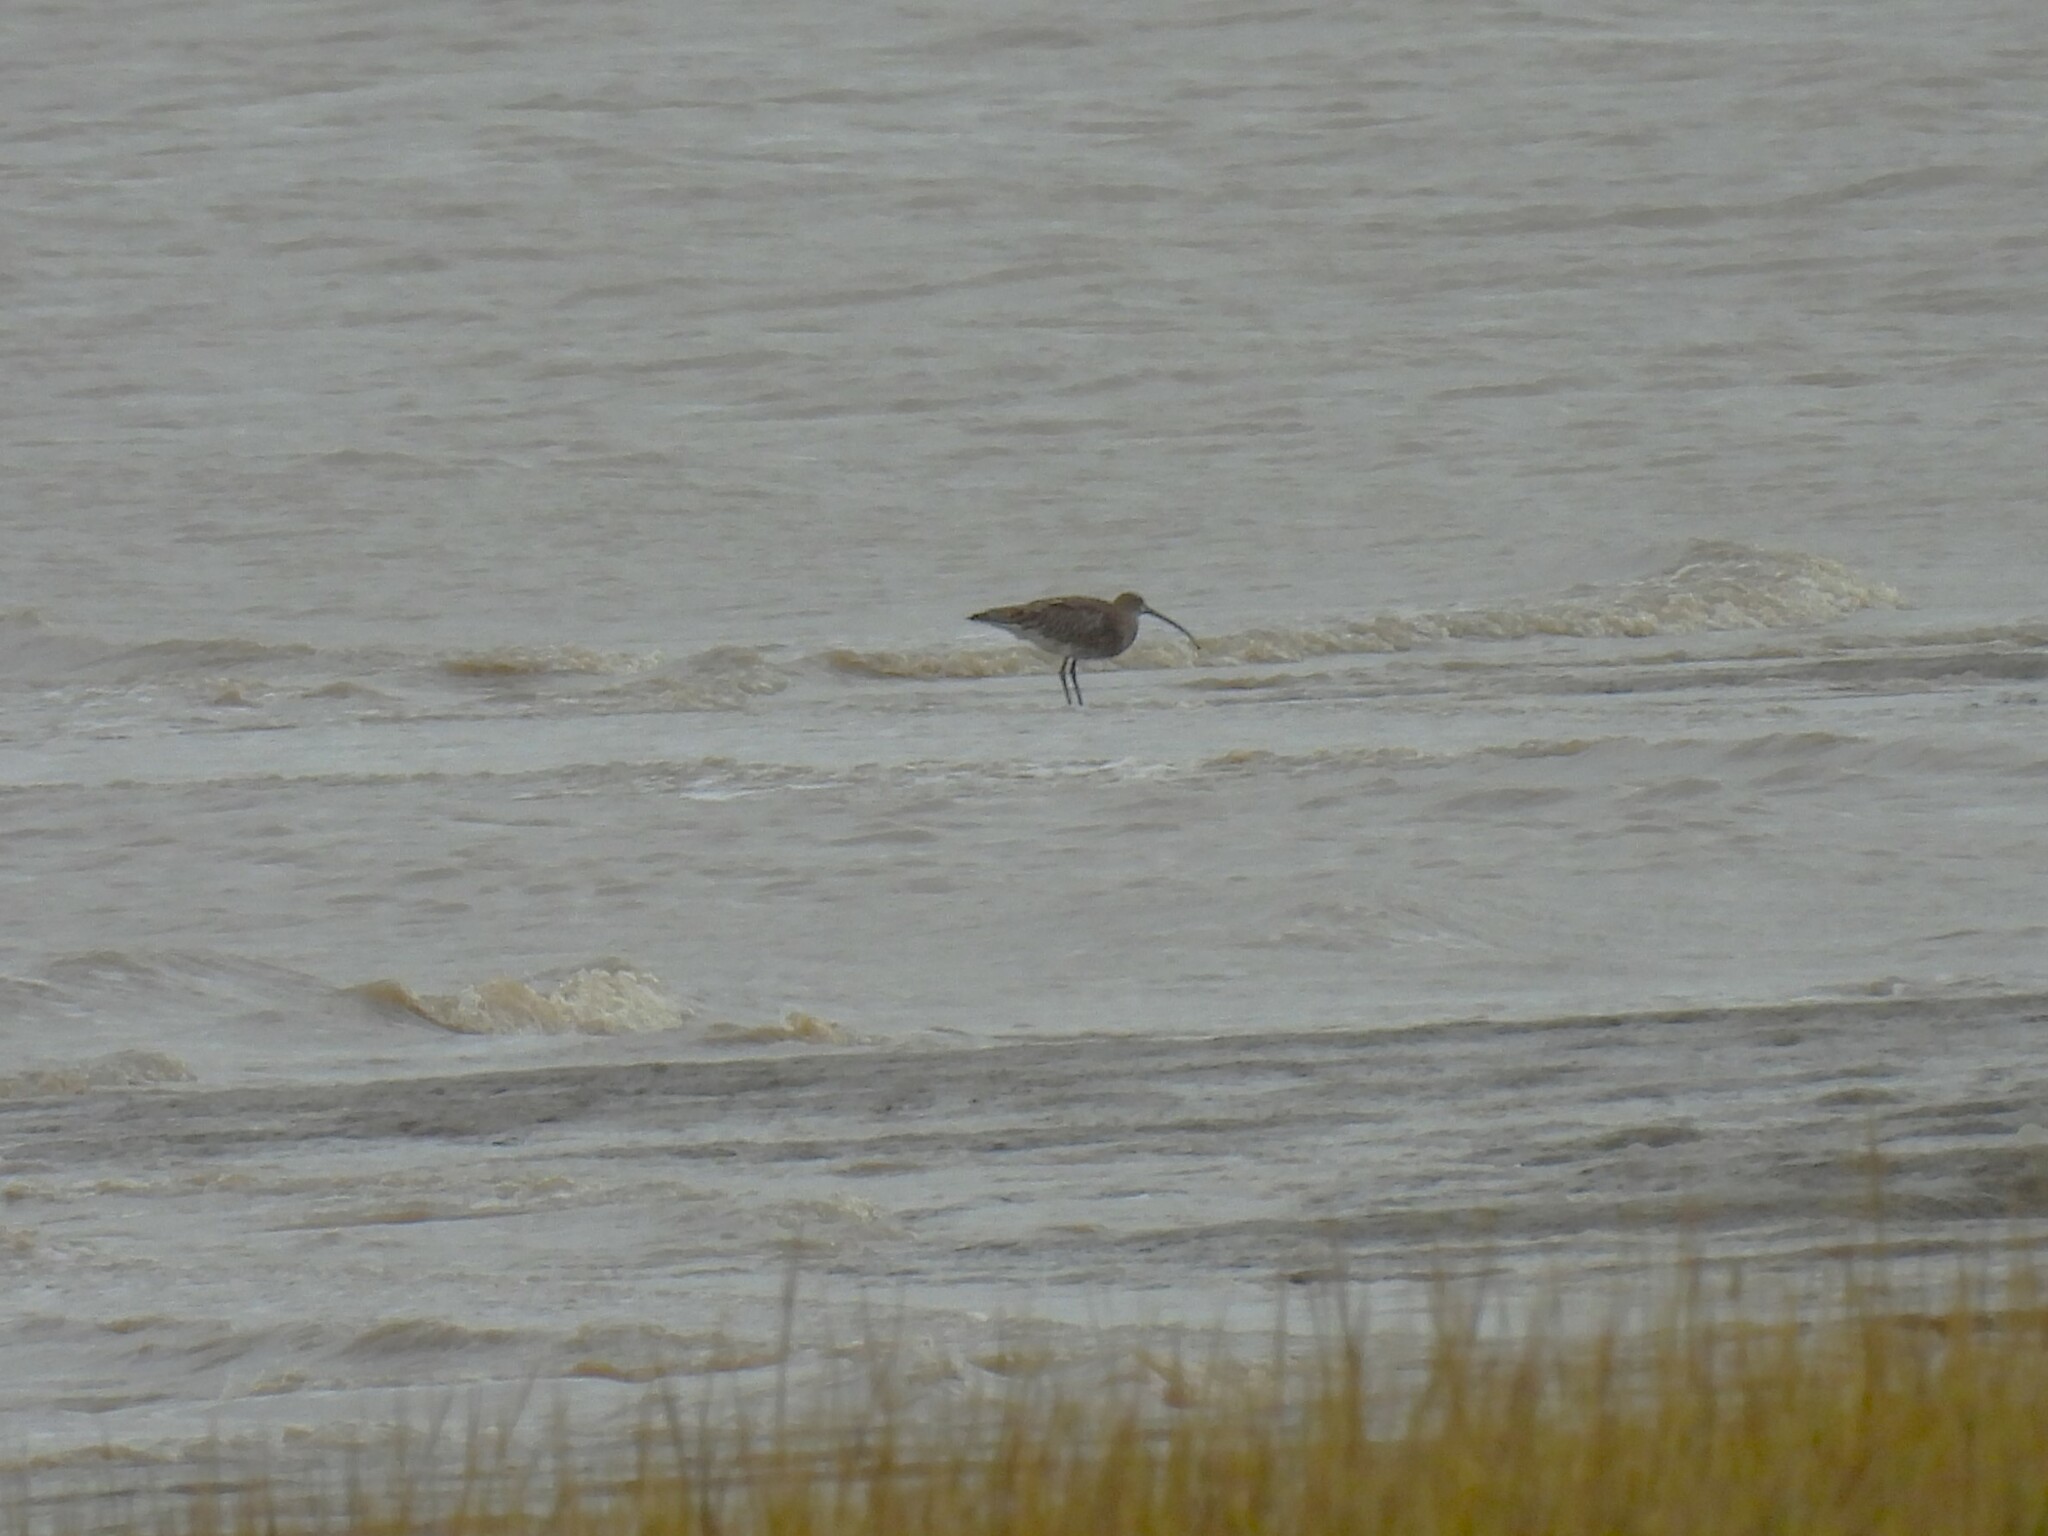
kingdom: Animalia
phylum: Chordata
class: Aves
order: Charadriiformes
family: Scolopacidae
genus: Numenius
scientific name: Numenius arquata
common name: Eurasian curlew
